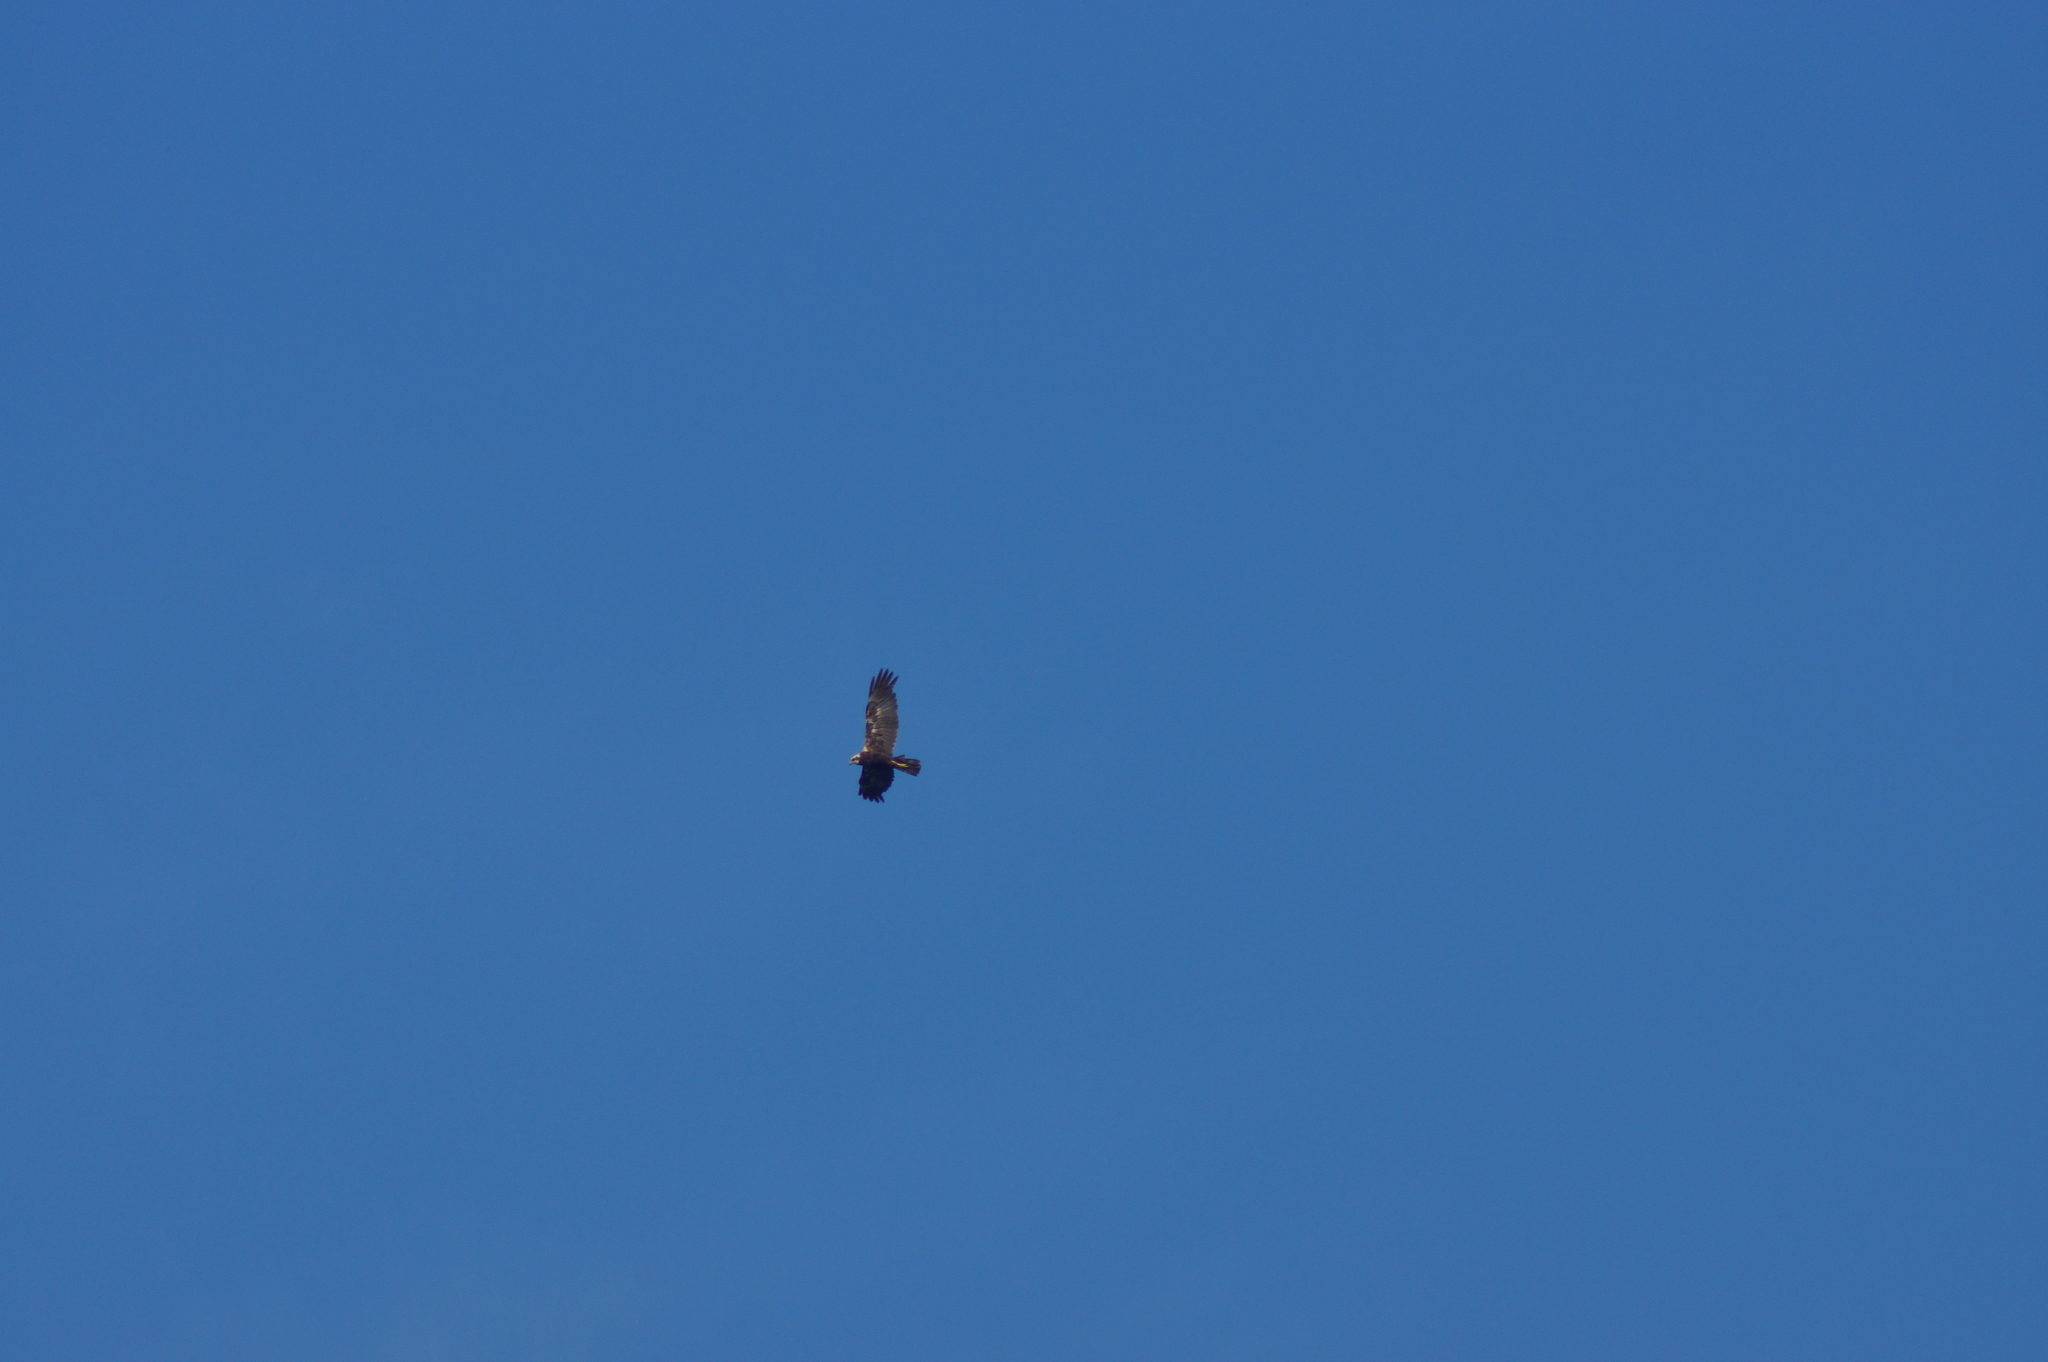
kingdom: Animalia
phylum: Chordata
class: Aves
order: Accipitriformes
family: Accipitridae
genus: Circus
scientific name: Circus aeruginosus
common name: Western marsh harrier
